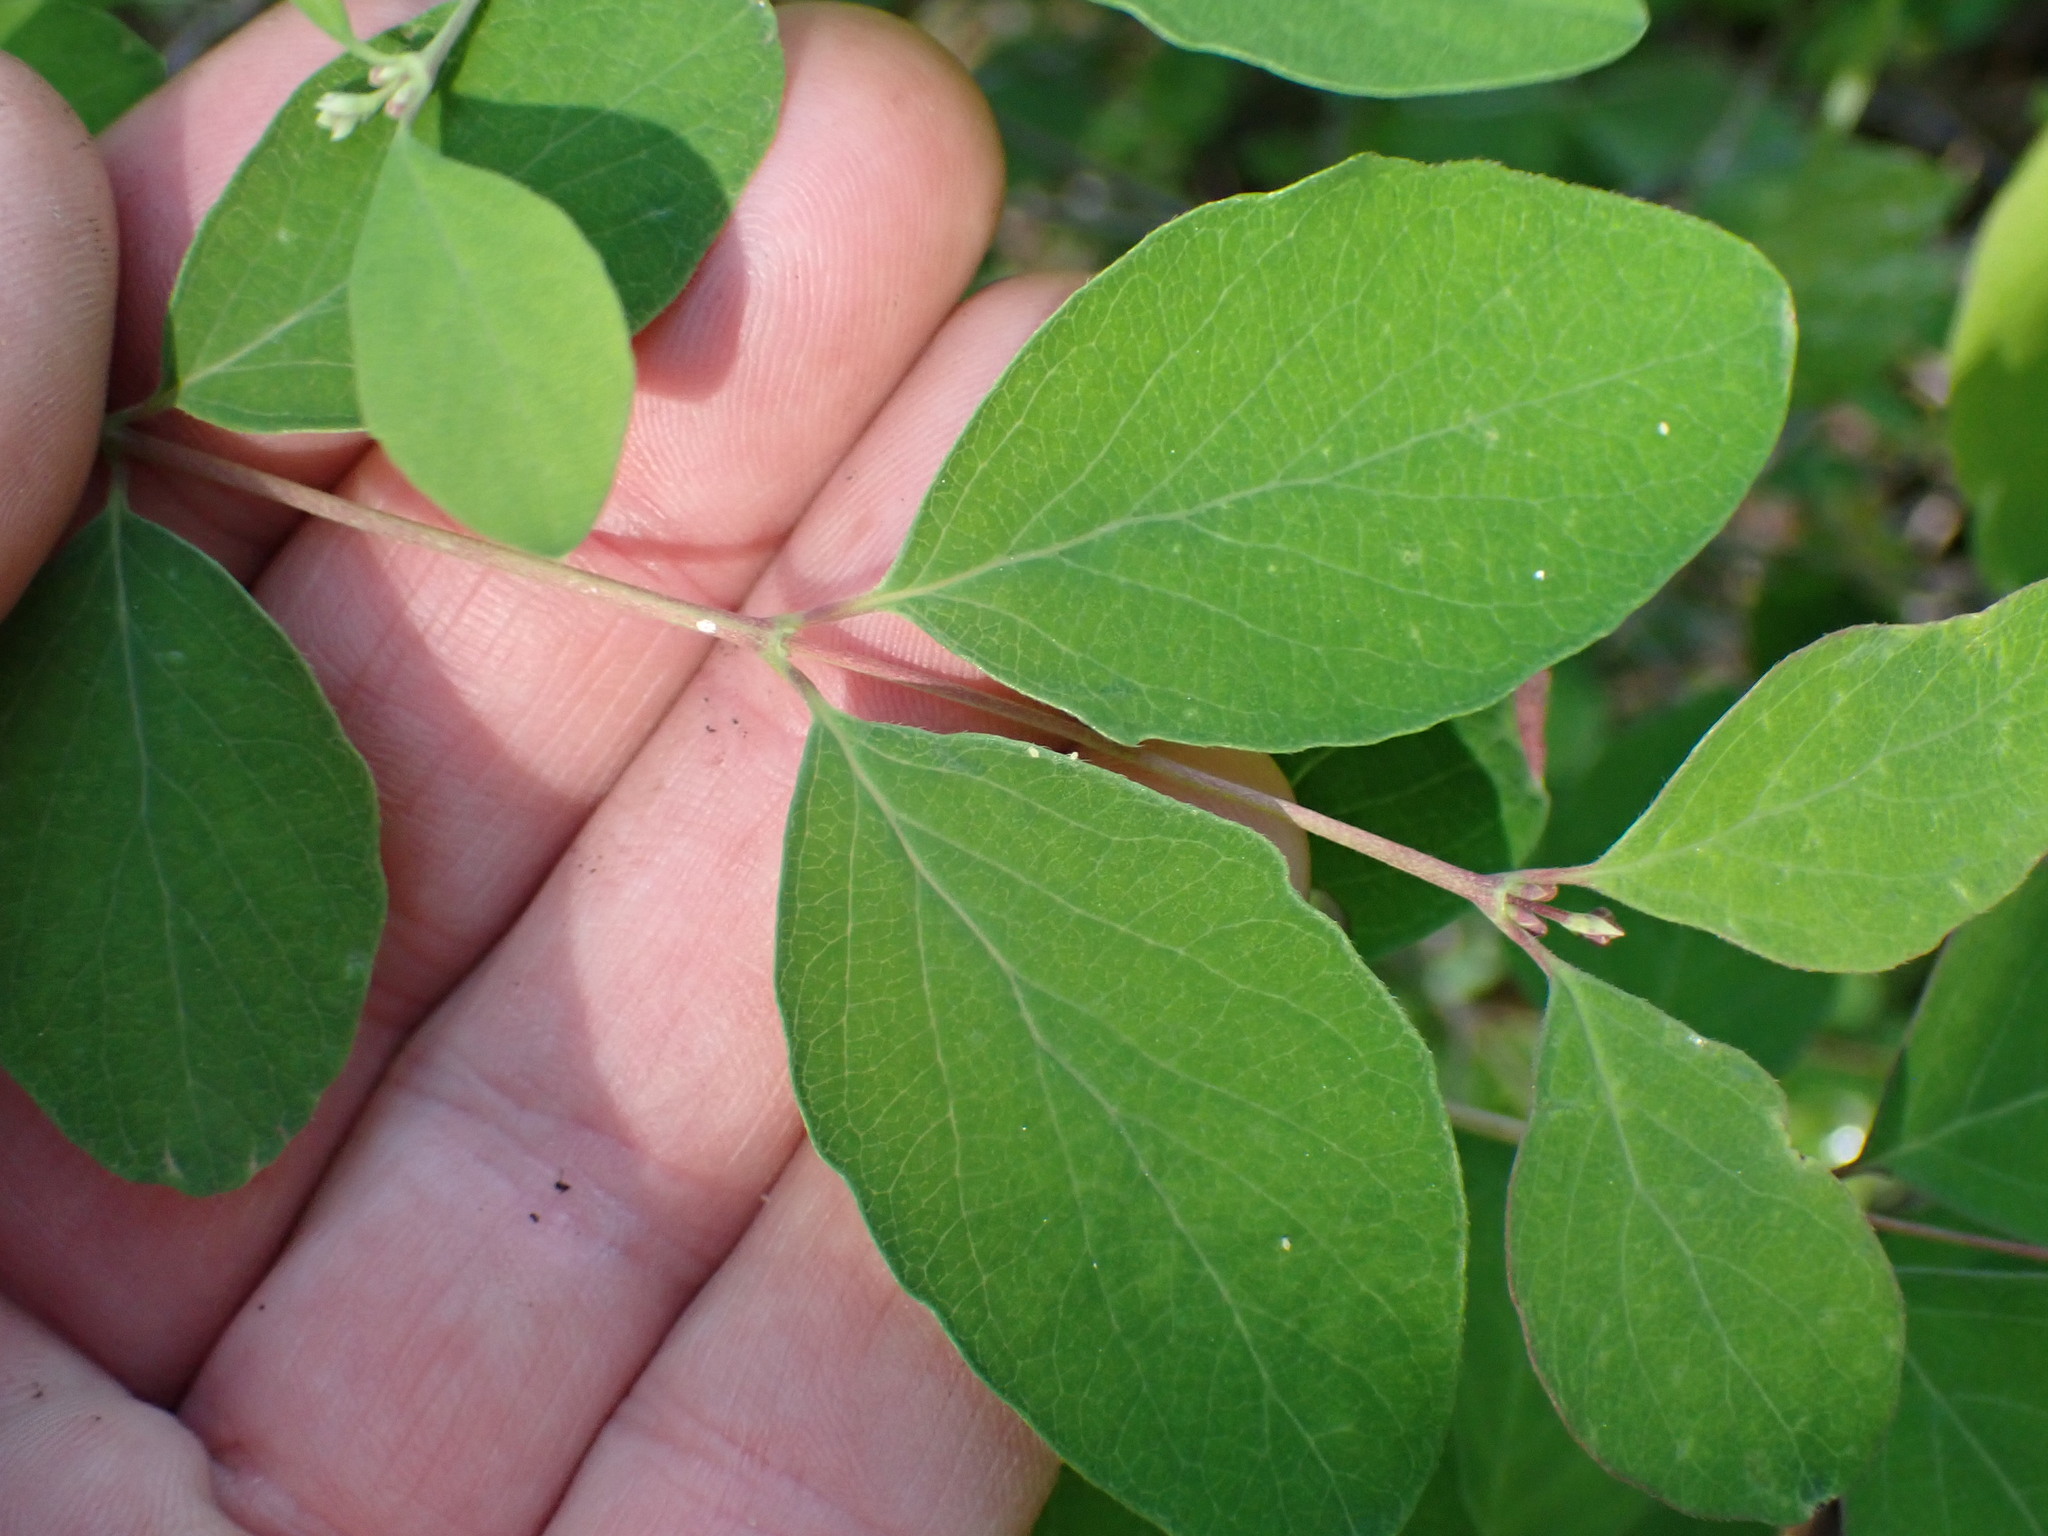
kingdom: Plantae
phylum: Tracheophyta
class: Magnoliopsida
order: Dipsacales
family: Caprifoliaceae
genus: Symphoricarpos
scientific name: Symphoricarpos albus
